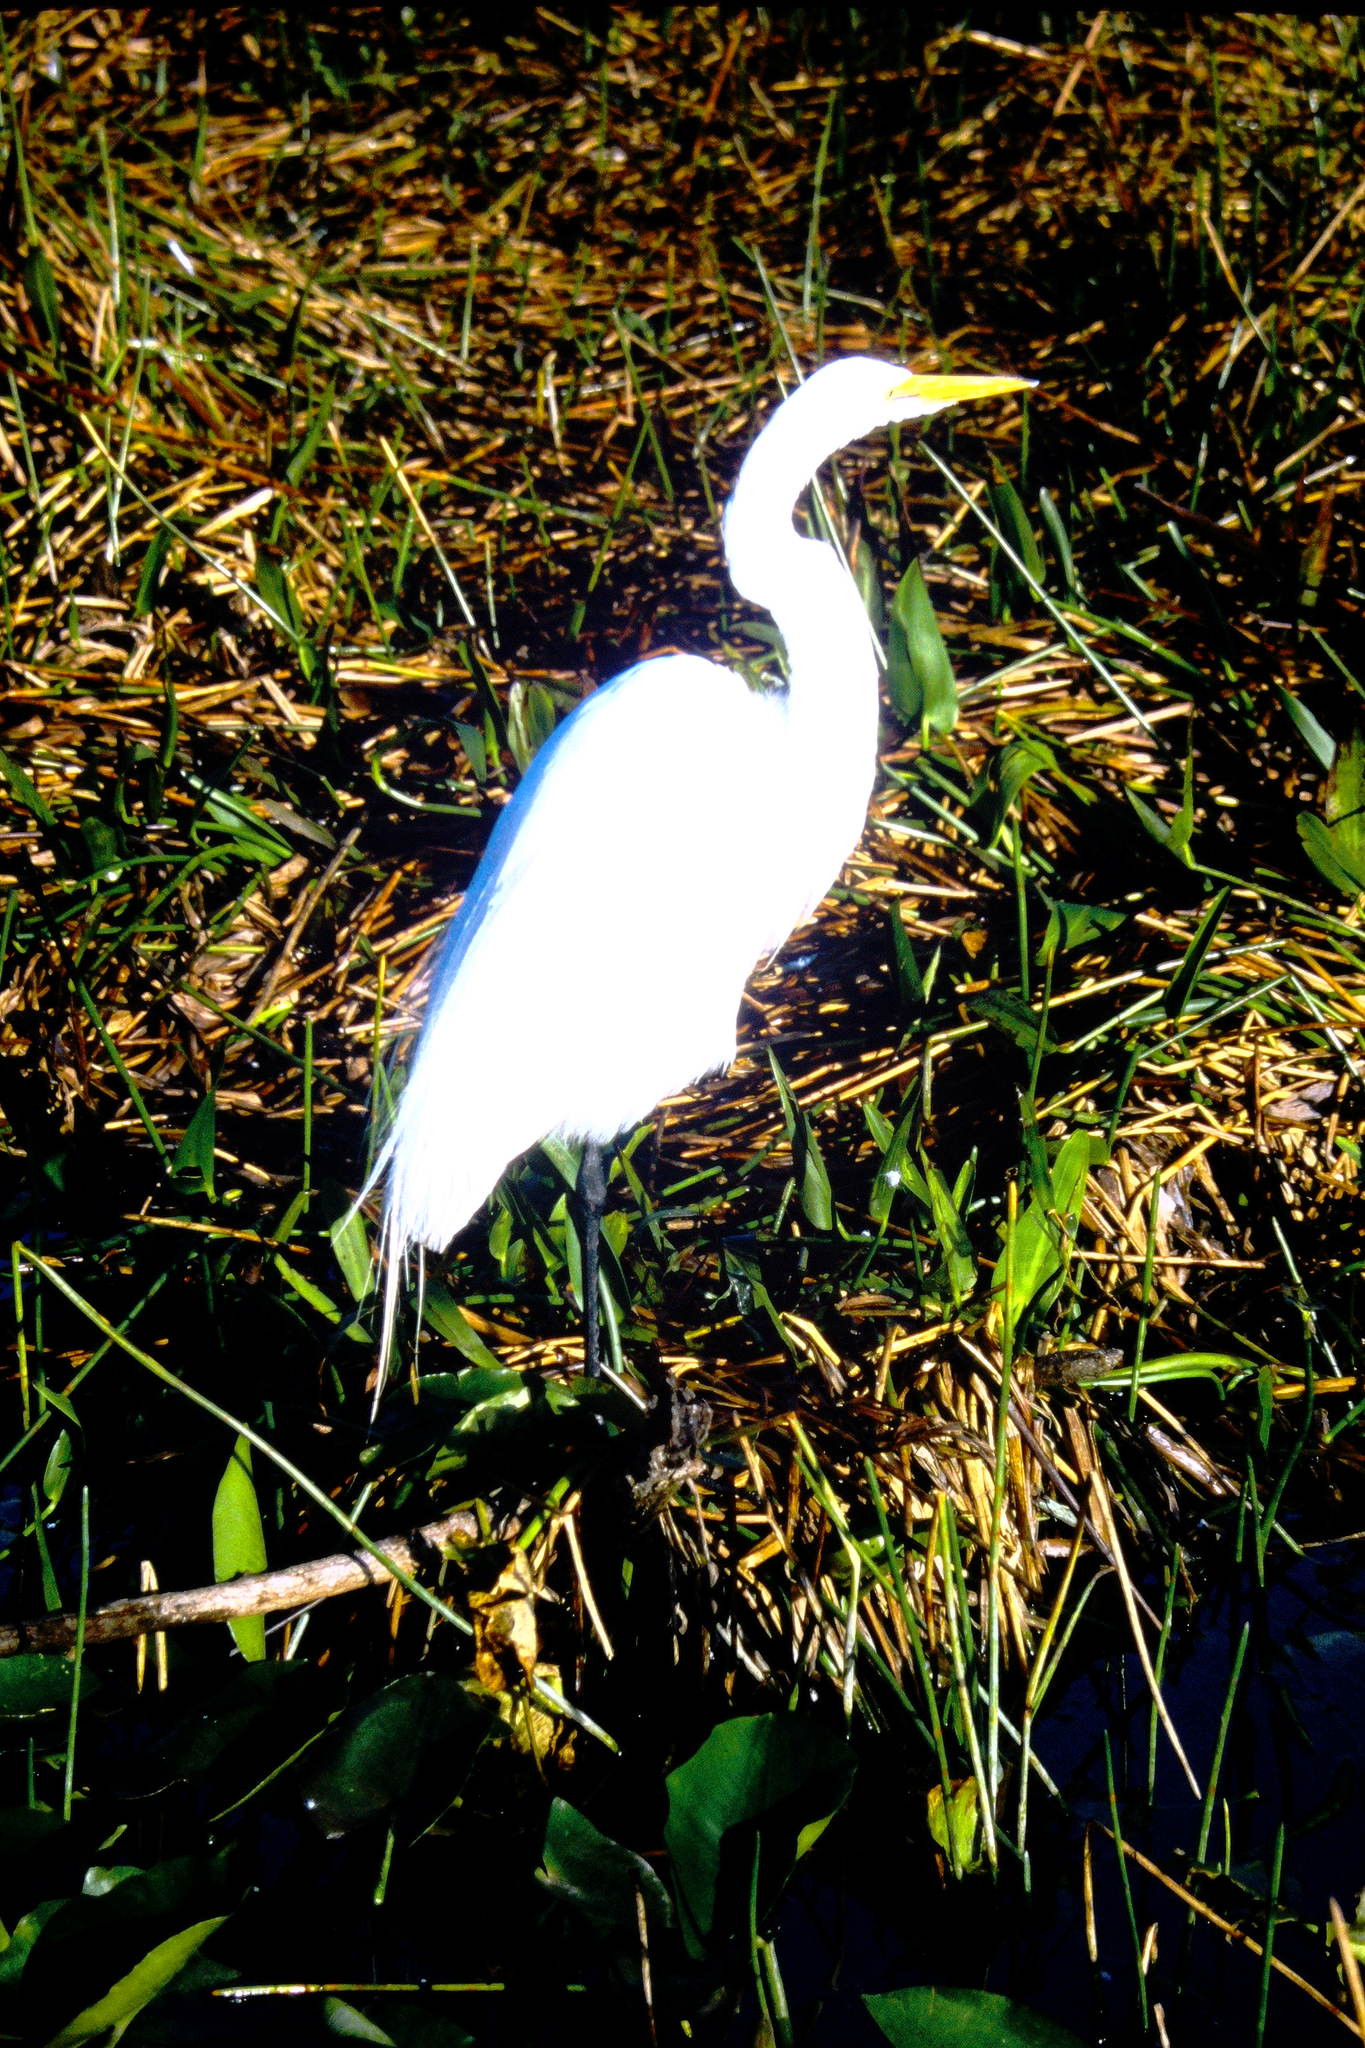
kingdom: Animalia
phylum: Chordata
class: Aves
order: Pelecaniformes
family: Ardeidae
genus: Ardea
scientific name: Ardea alba
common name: Great egret
